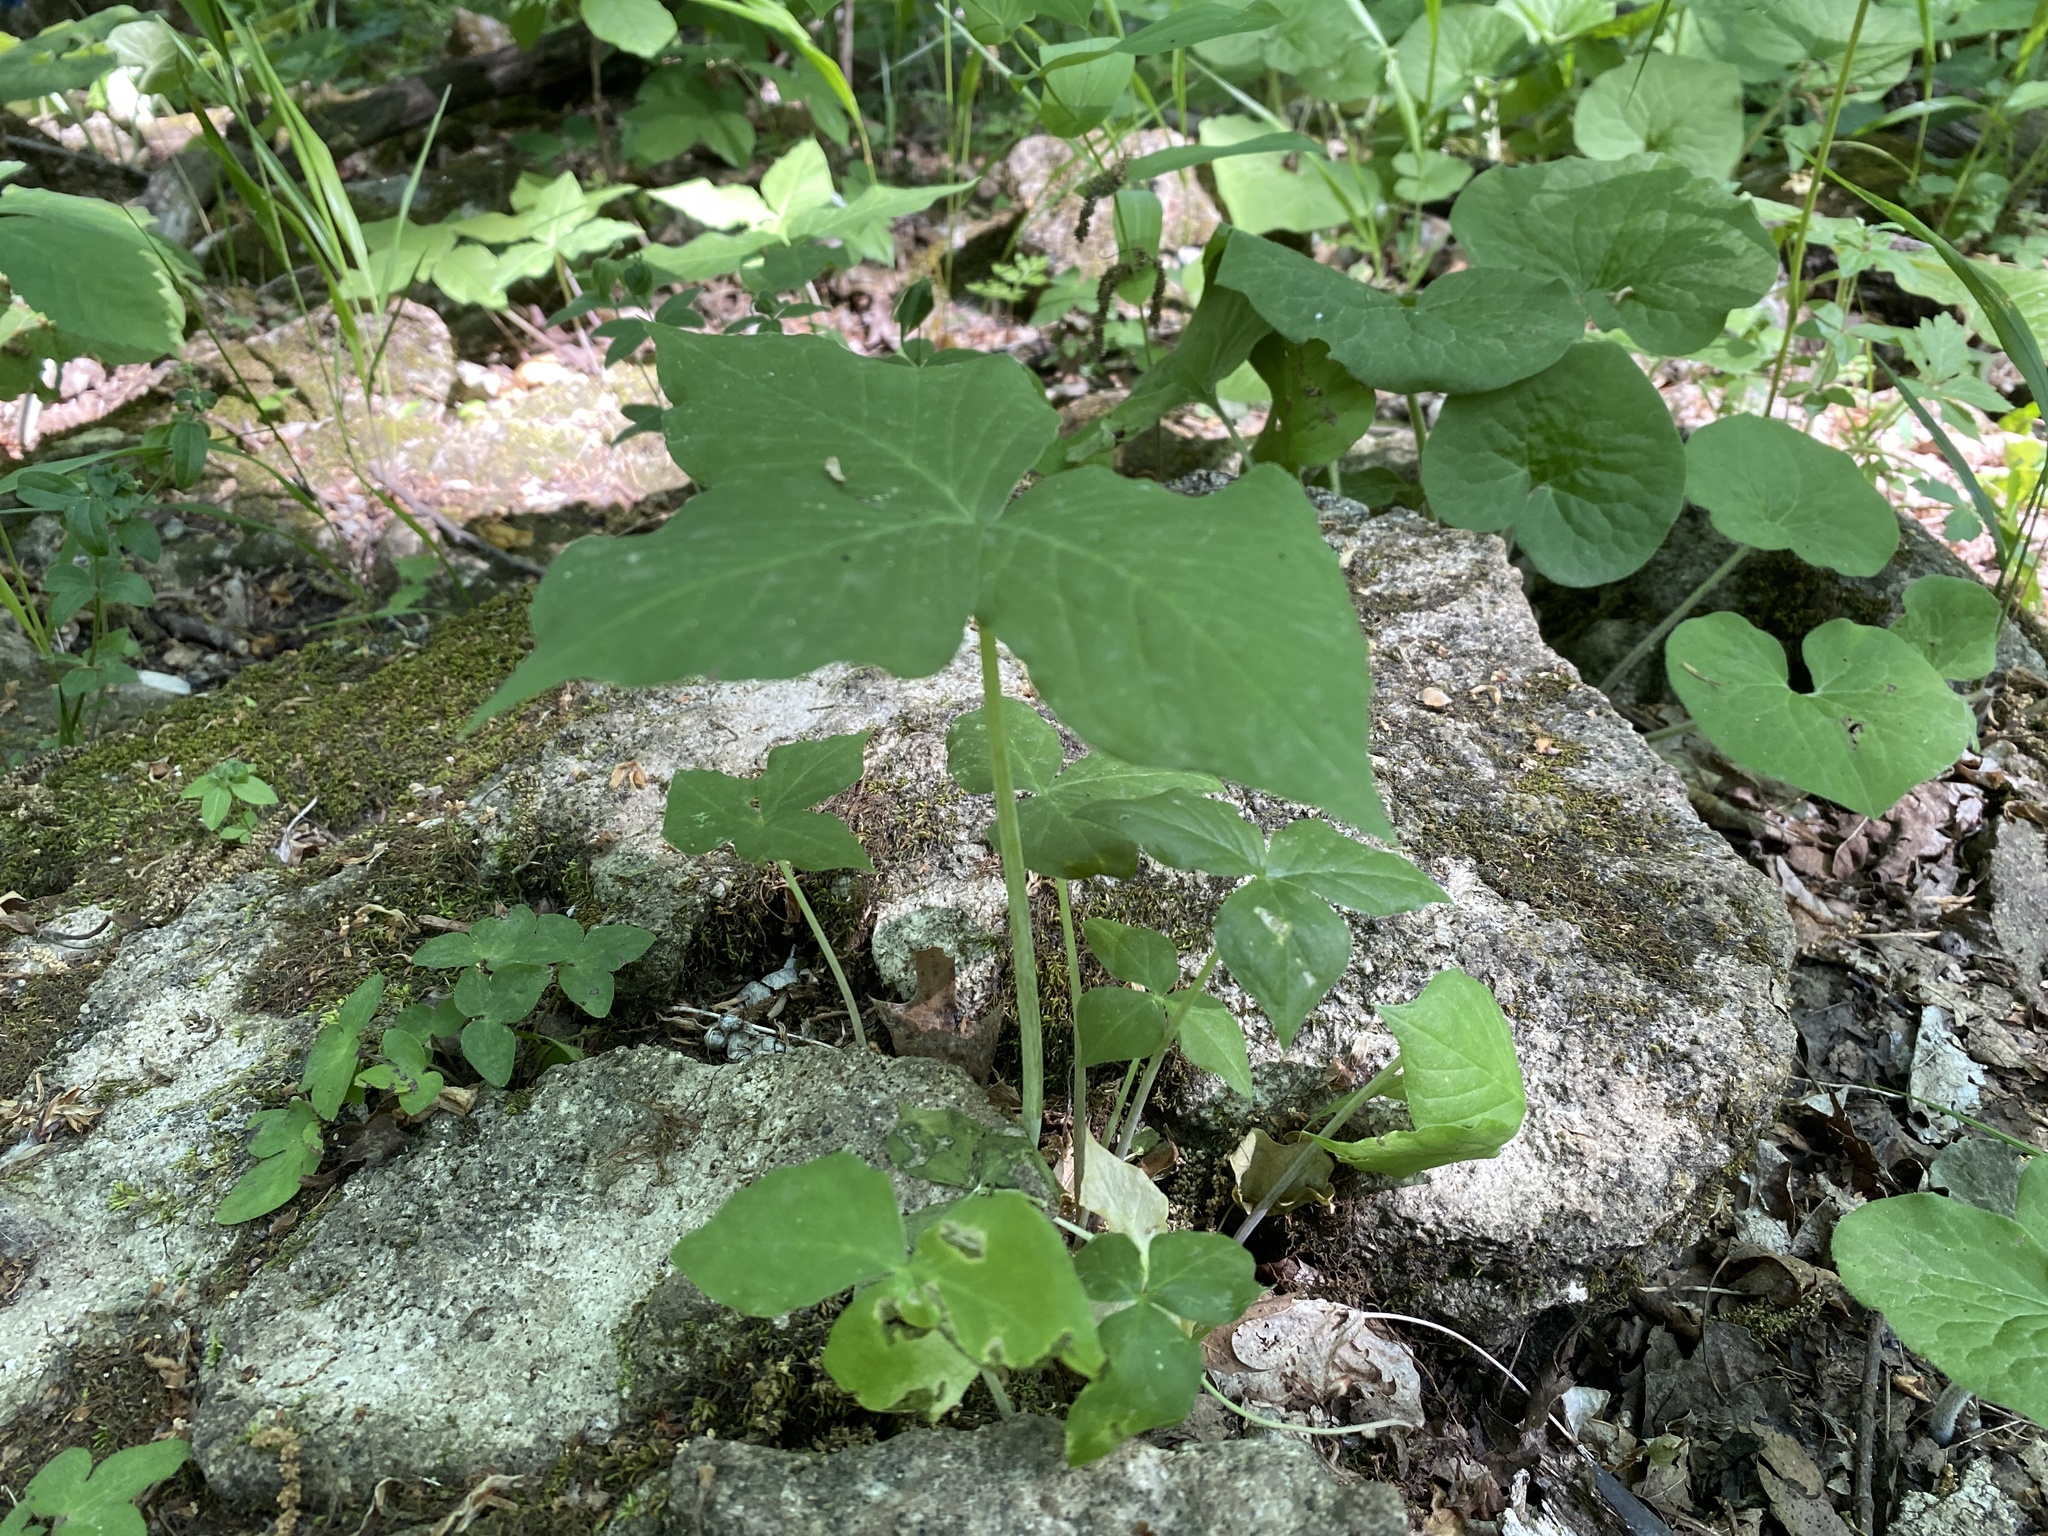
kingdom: Plantae
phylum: Tracheophyta
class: Liliopsida
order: Alismatales
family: Araceae
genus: Arisaema
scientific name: Arisaema triphyllum
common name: Jack-in-the-pulpit
